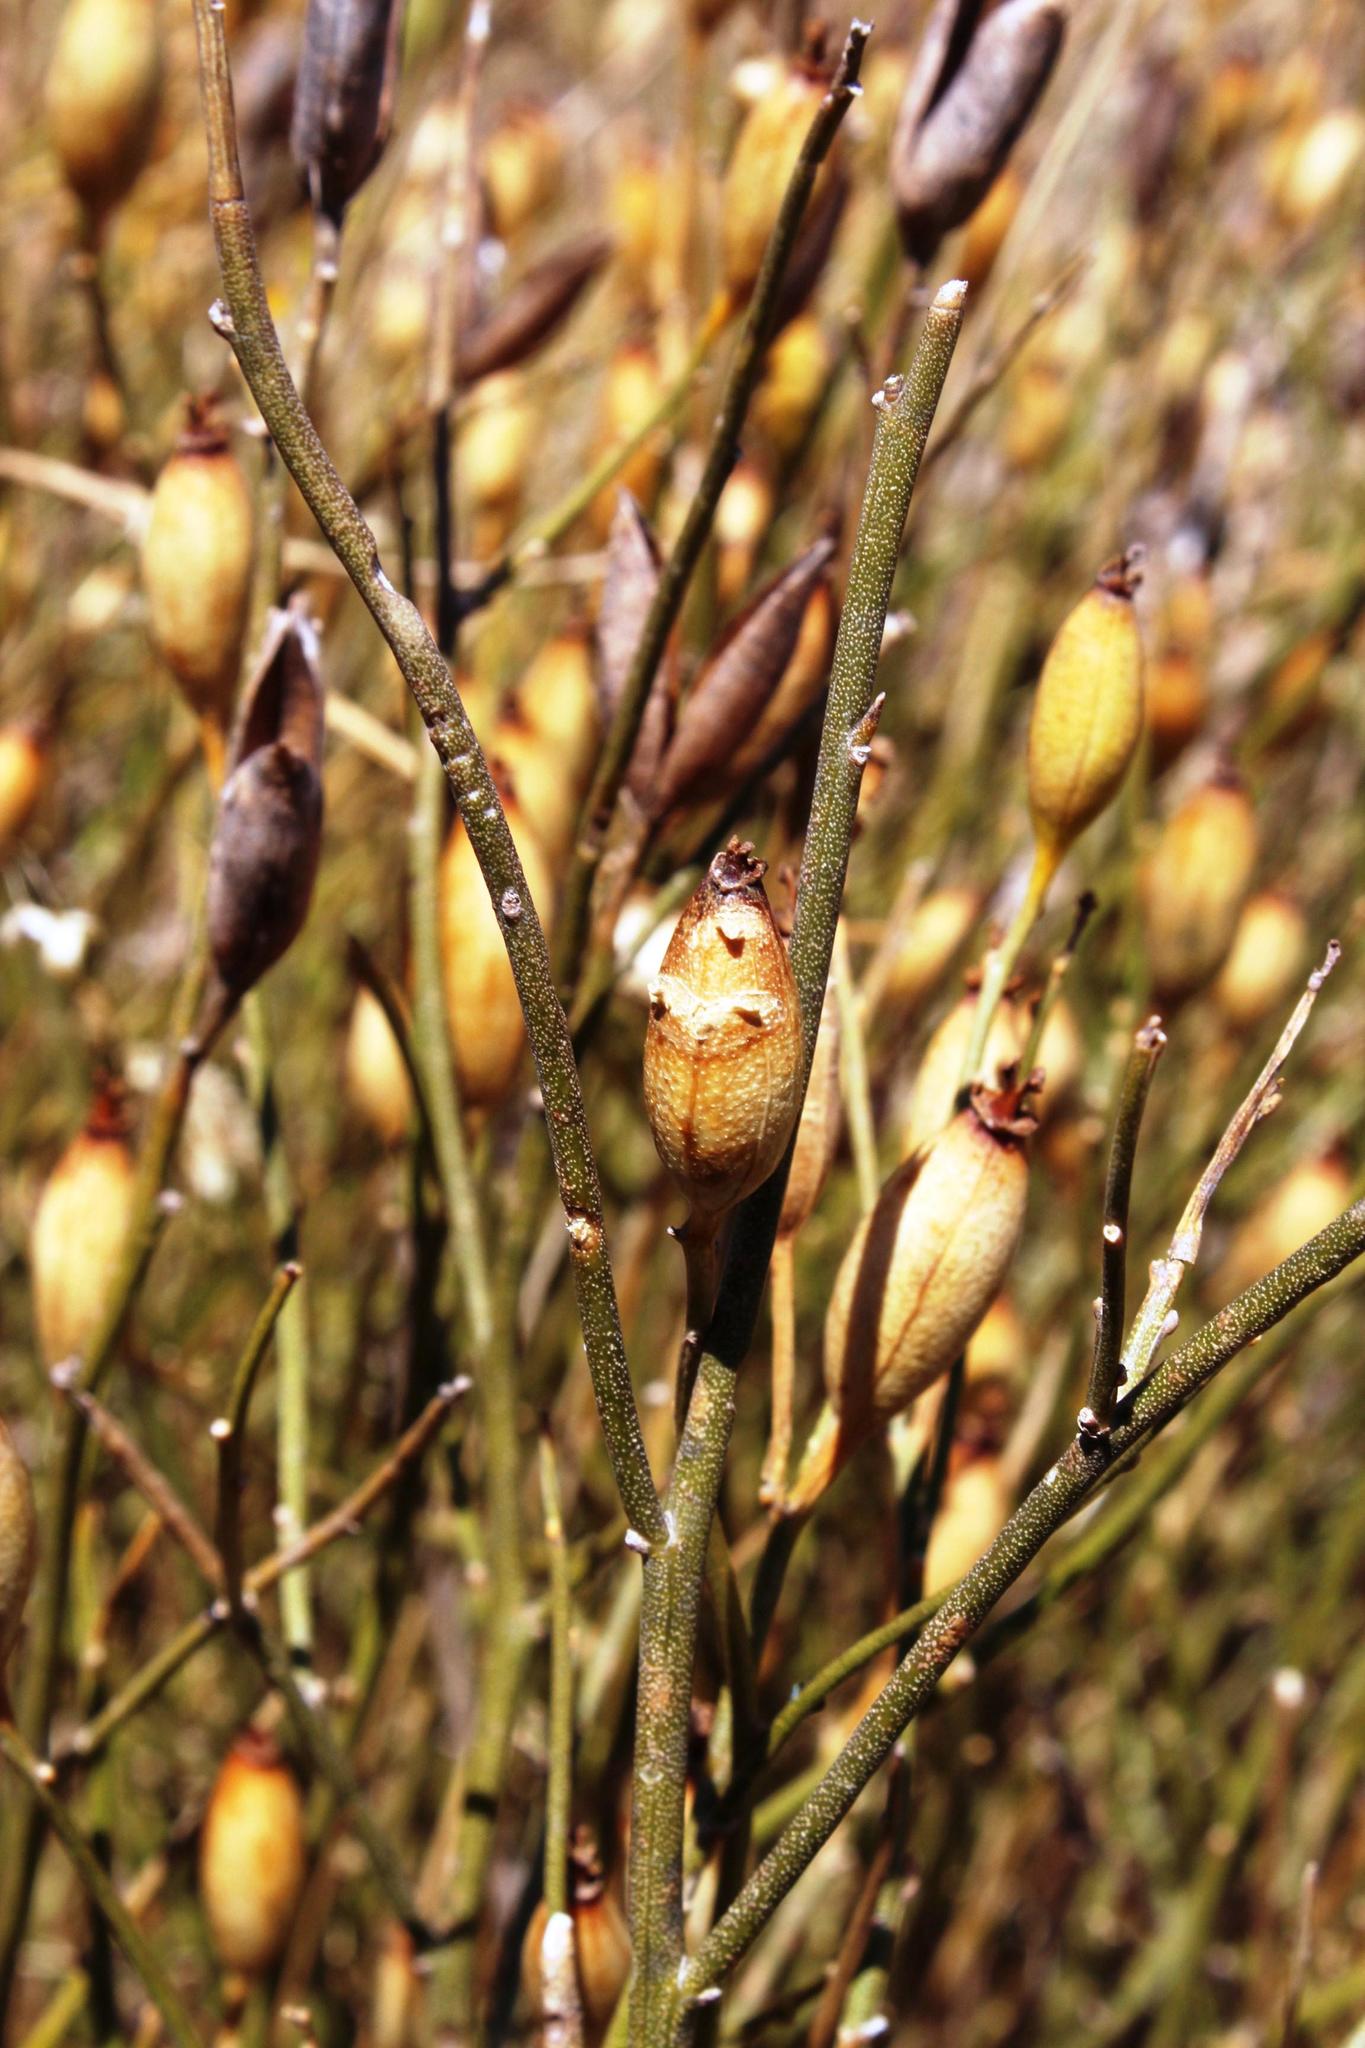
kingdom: Plantae
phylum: Tracheophyta
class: Magnoliopsida
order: Solanales
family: Montiniaceae
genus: Montinia
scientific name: Montinia caryophyllacea
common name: Wild clove-bush
